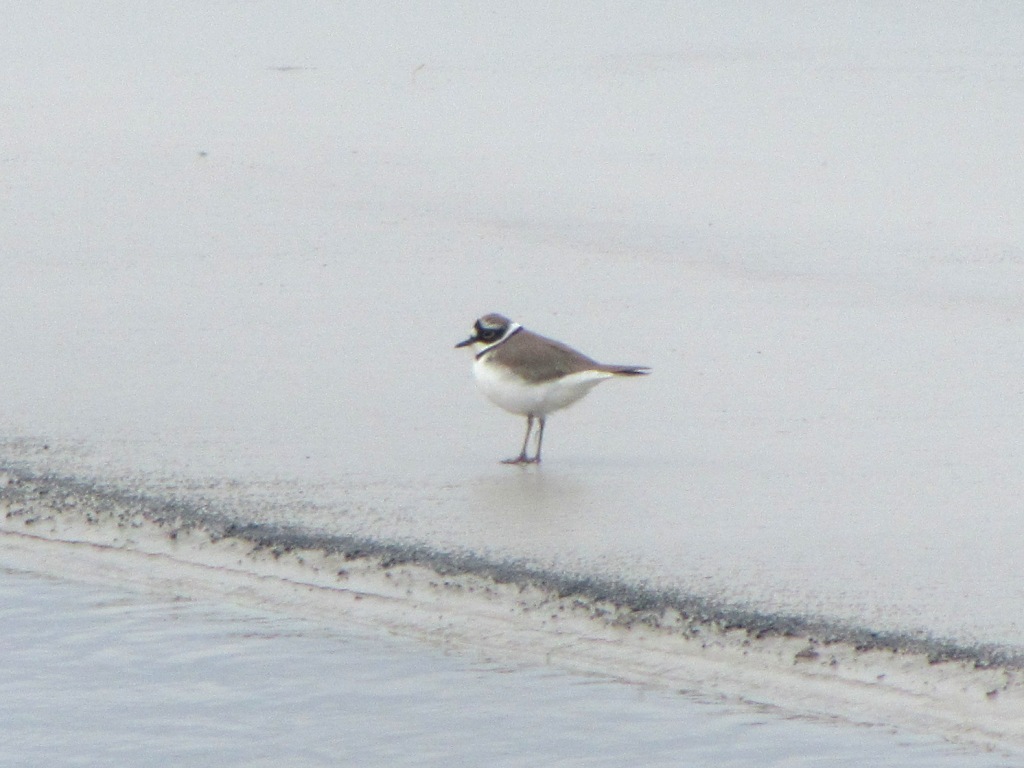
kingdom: Animalia
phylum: Chordata
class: Aves
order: Charadriiformes
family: Charadriidae
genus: Charadrius
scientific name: Charadrius dubius
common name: Little ringed plover
